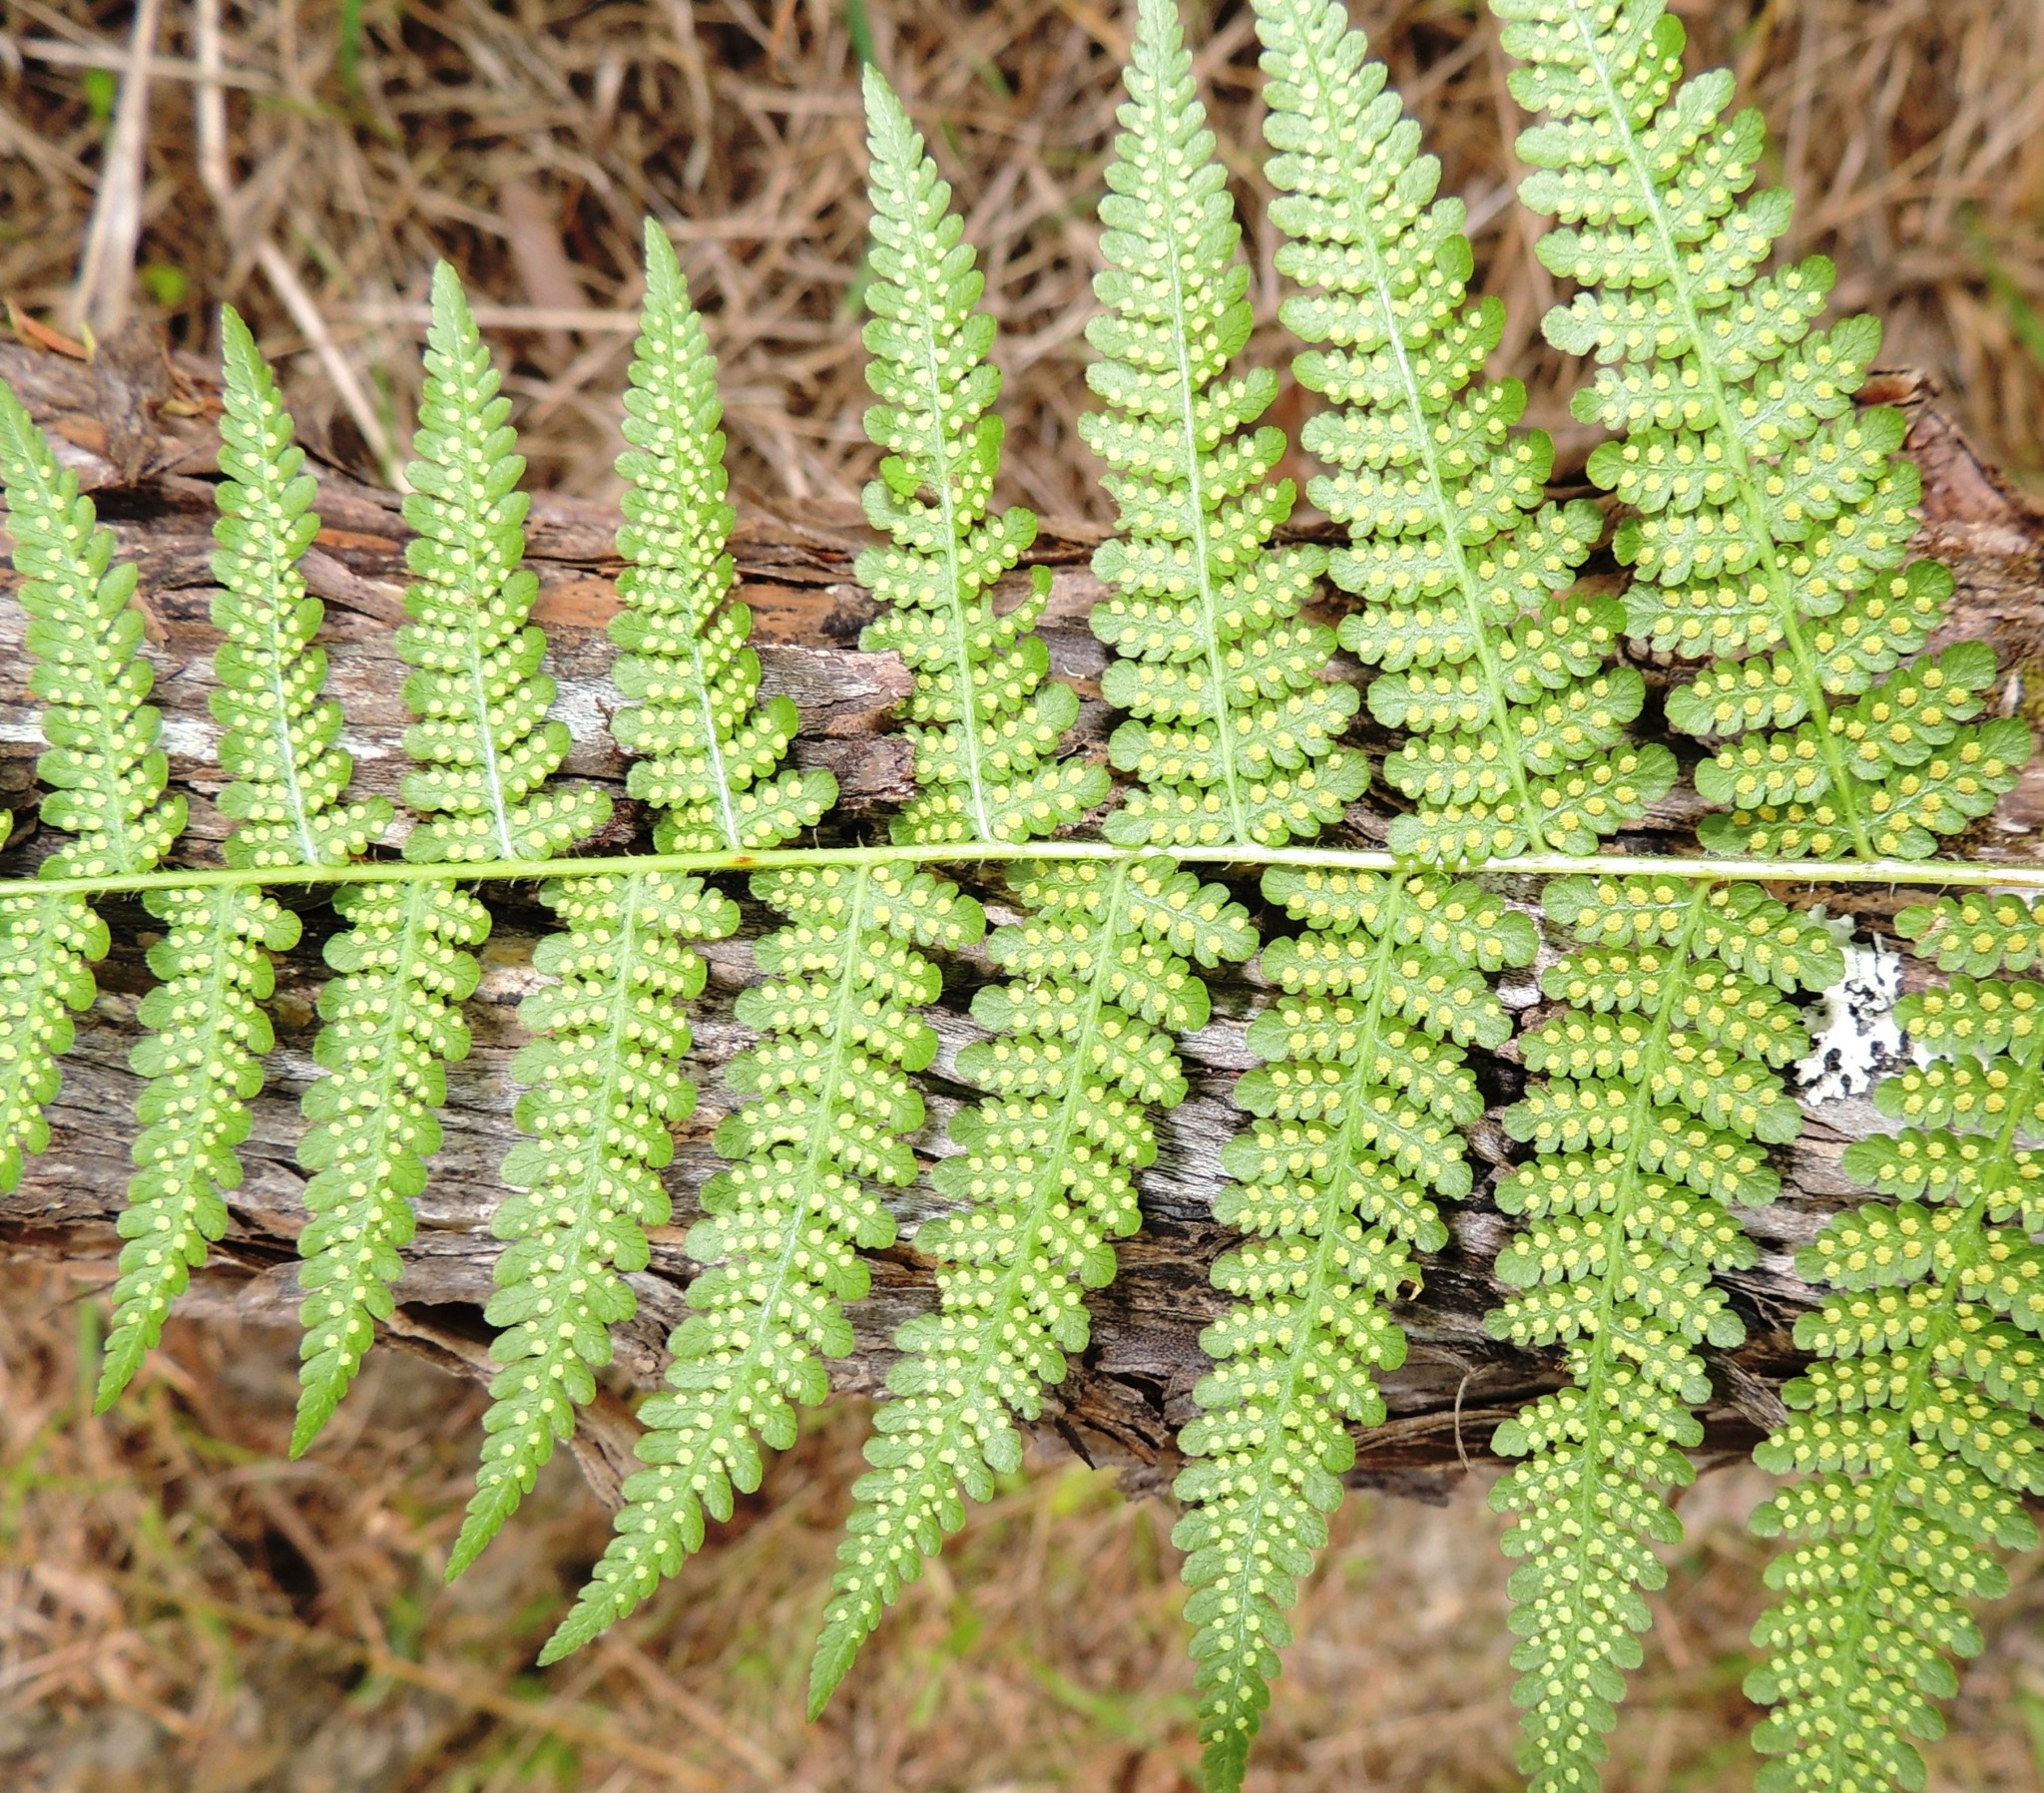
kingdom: Plantae
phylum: Tracheophyta
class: Polypodiopsida
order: Polypodiales
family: Dennstaedtiaceae
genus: Hypolepis
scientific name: Hypolepis ambigua
